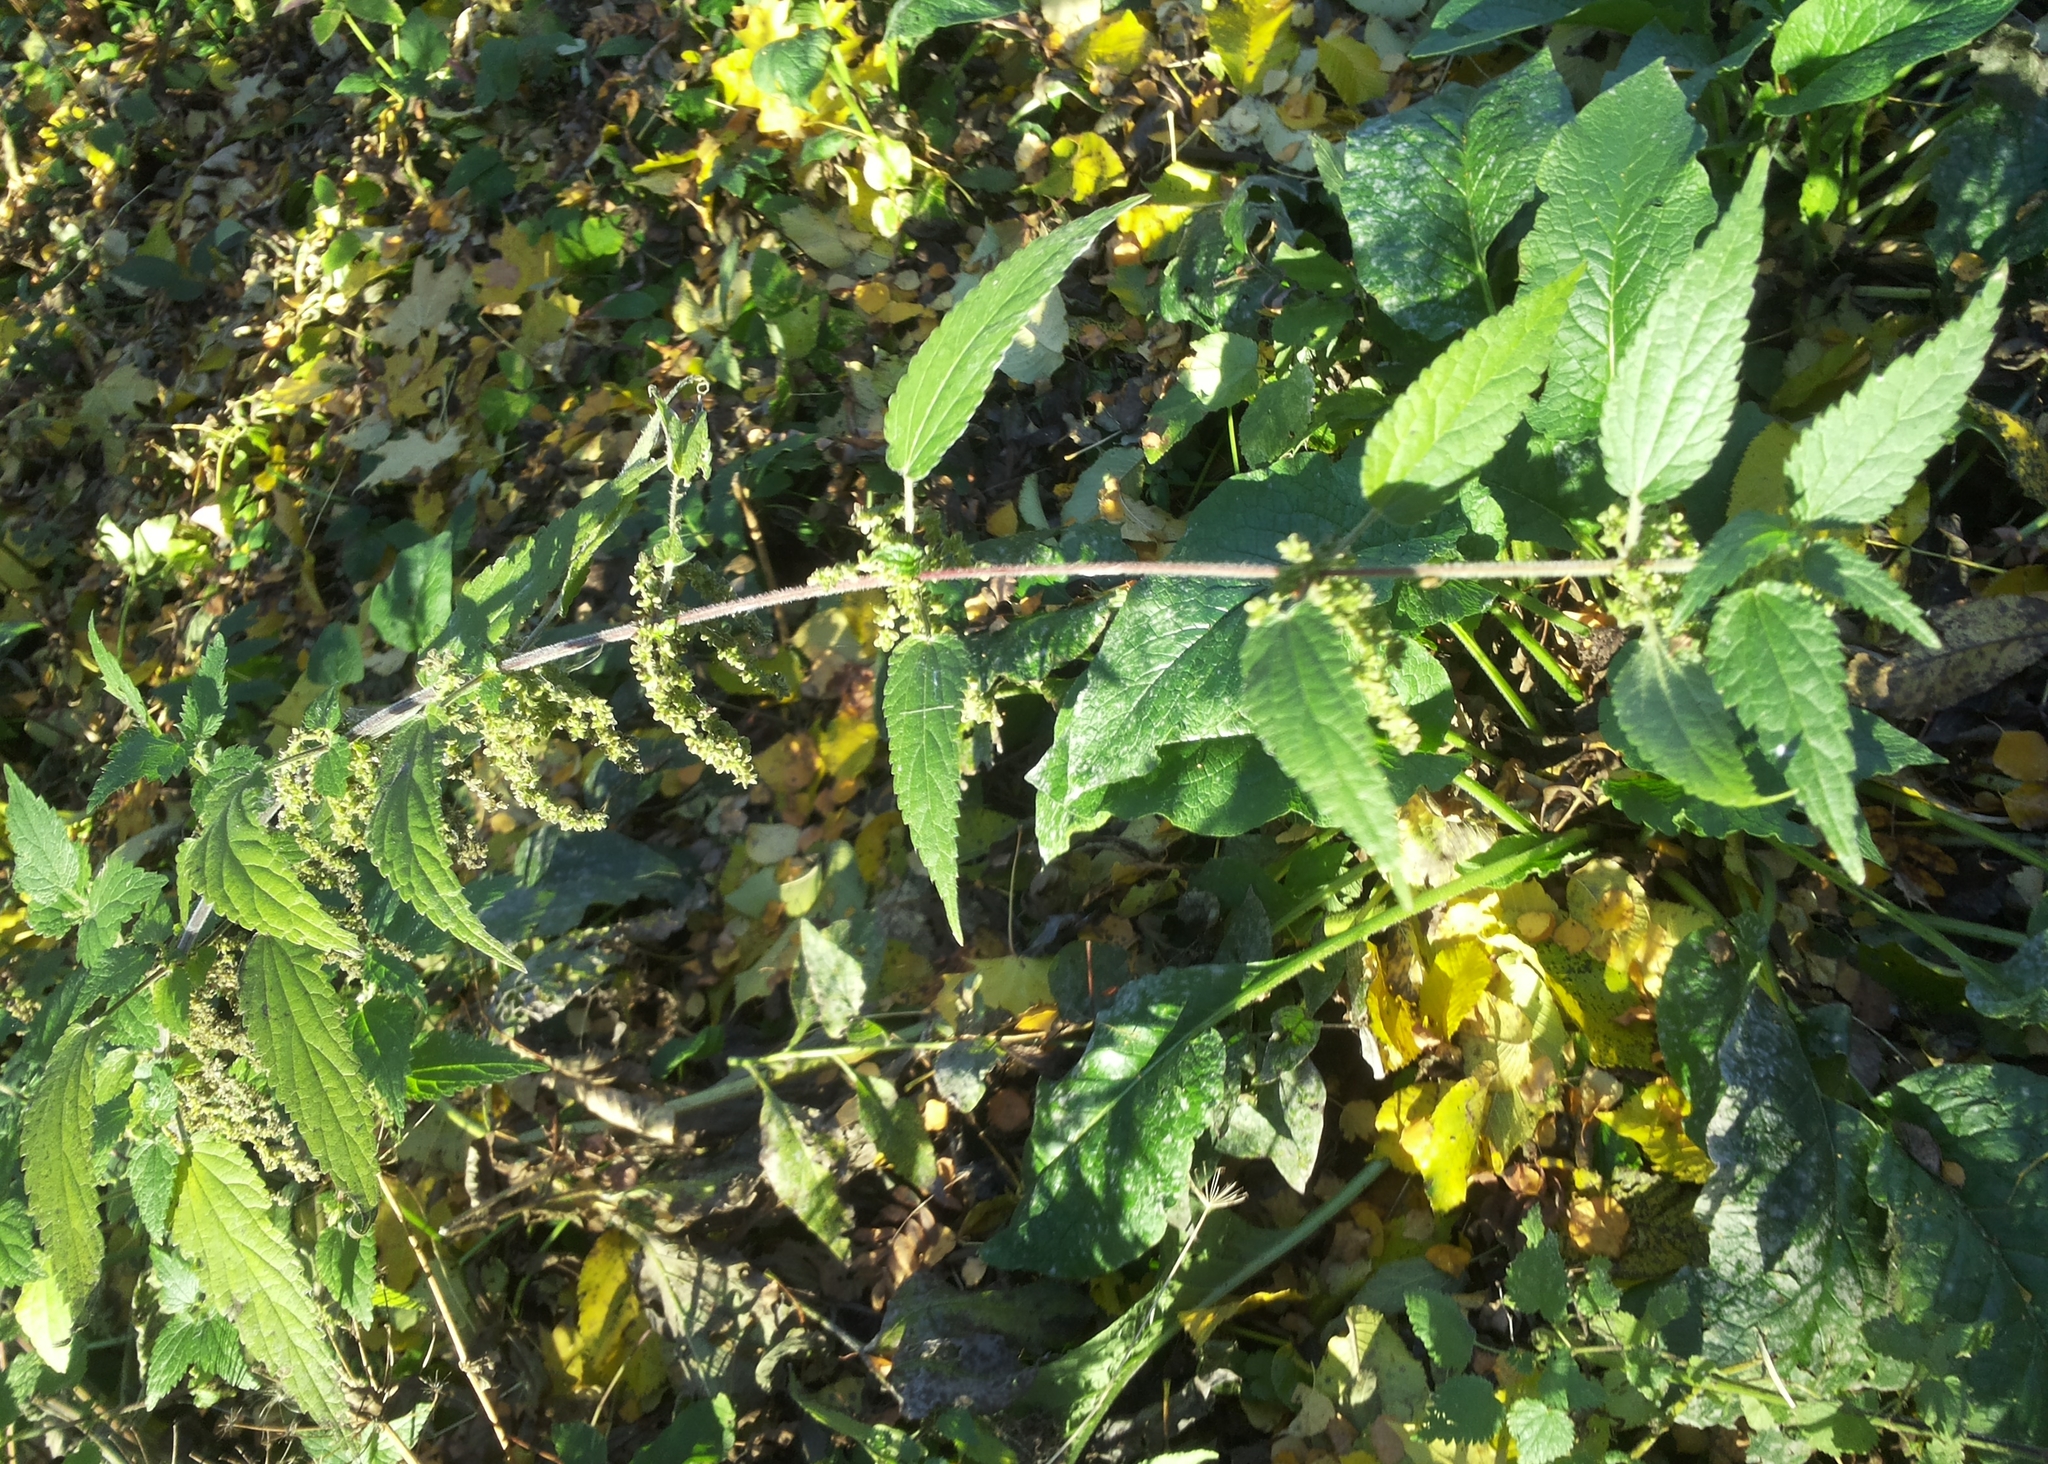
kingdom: Plantae
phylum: Tracheophyta
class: Magnoliopsida
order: Rosales
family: Urticaceae
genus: Urtica
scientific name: Urtica dioica
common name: Common nettle
